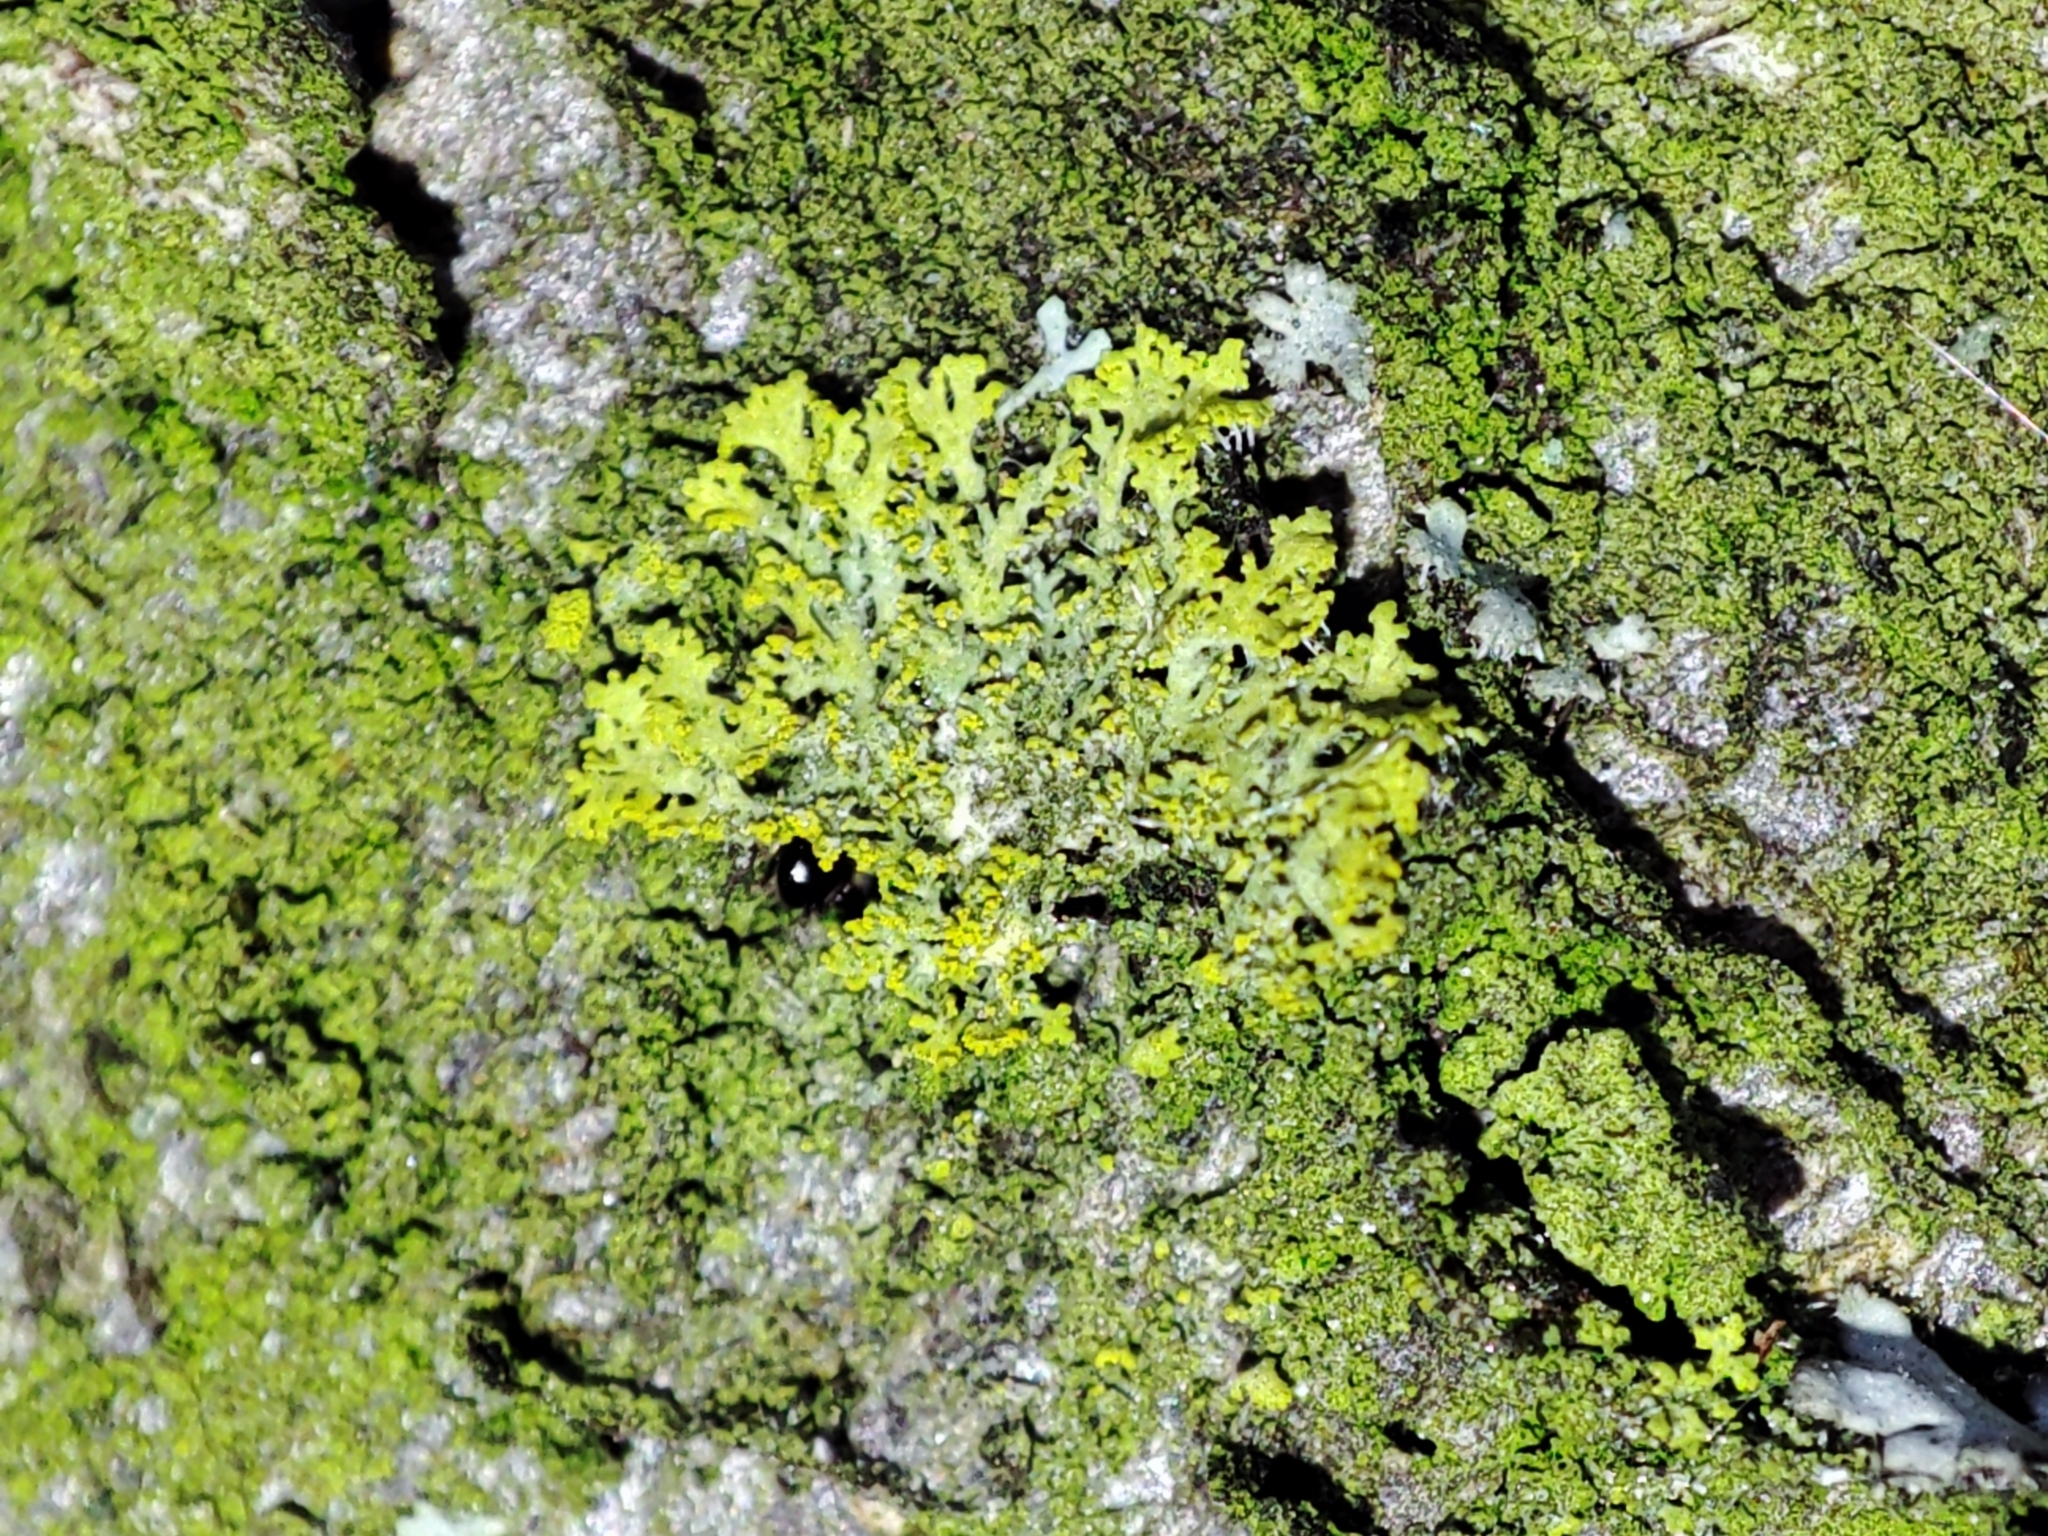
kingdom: Fungi
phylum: Ascomycota
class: Candelariomycetes
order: Candelariales
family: Candelariaceae
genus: Candelaria
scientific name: Candelaria concolor
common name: Candleflame lichen
